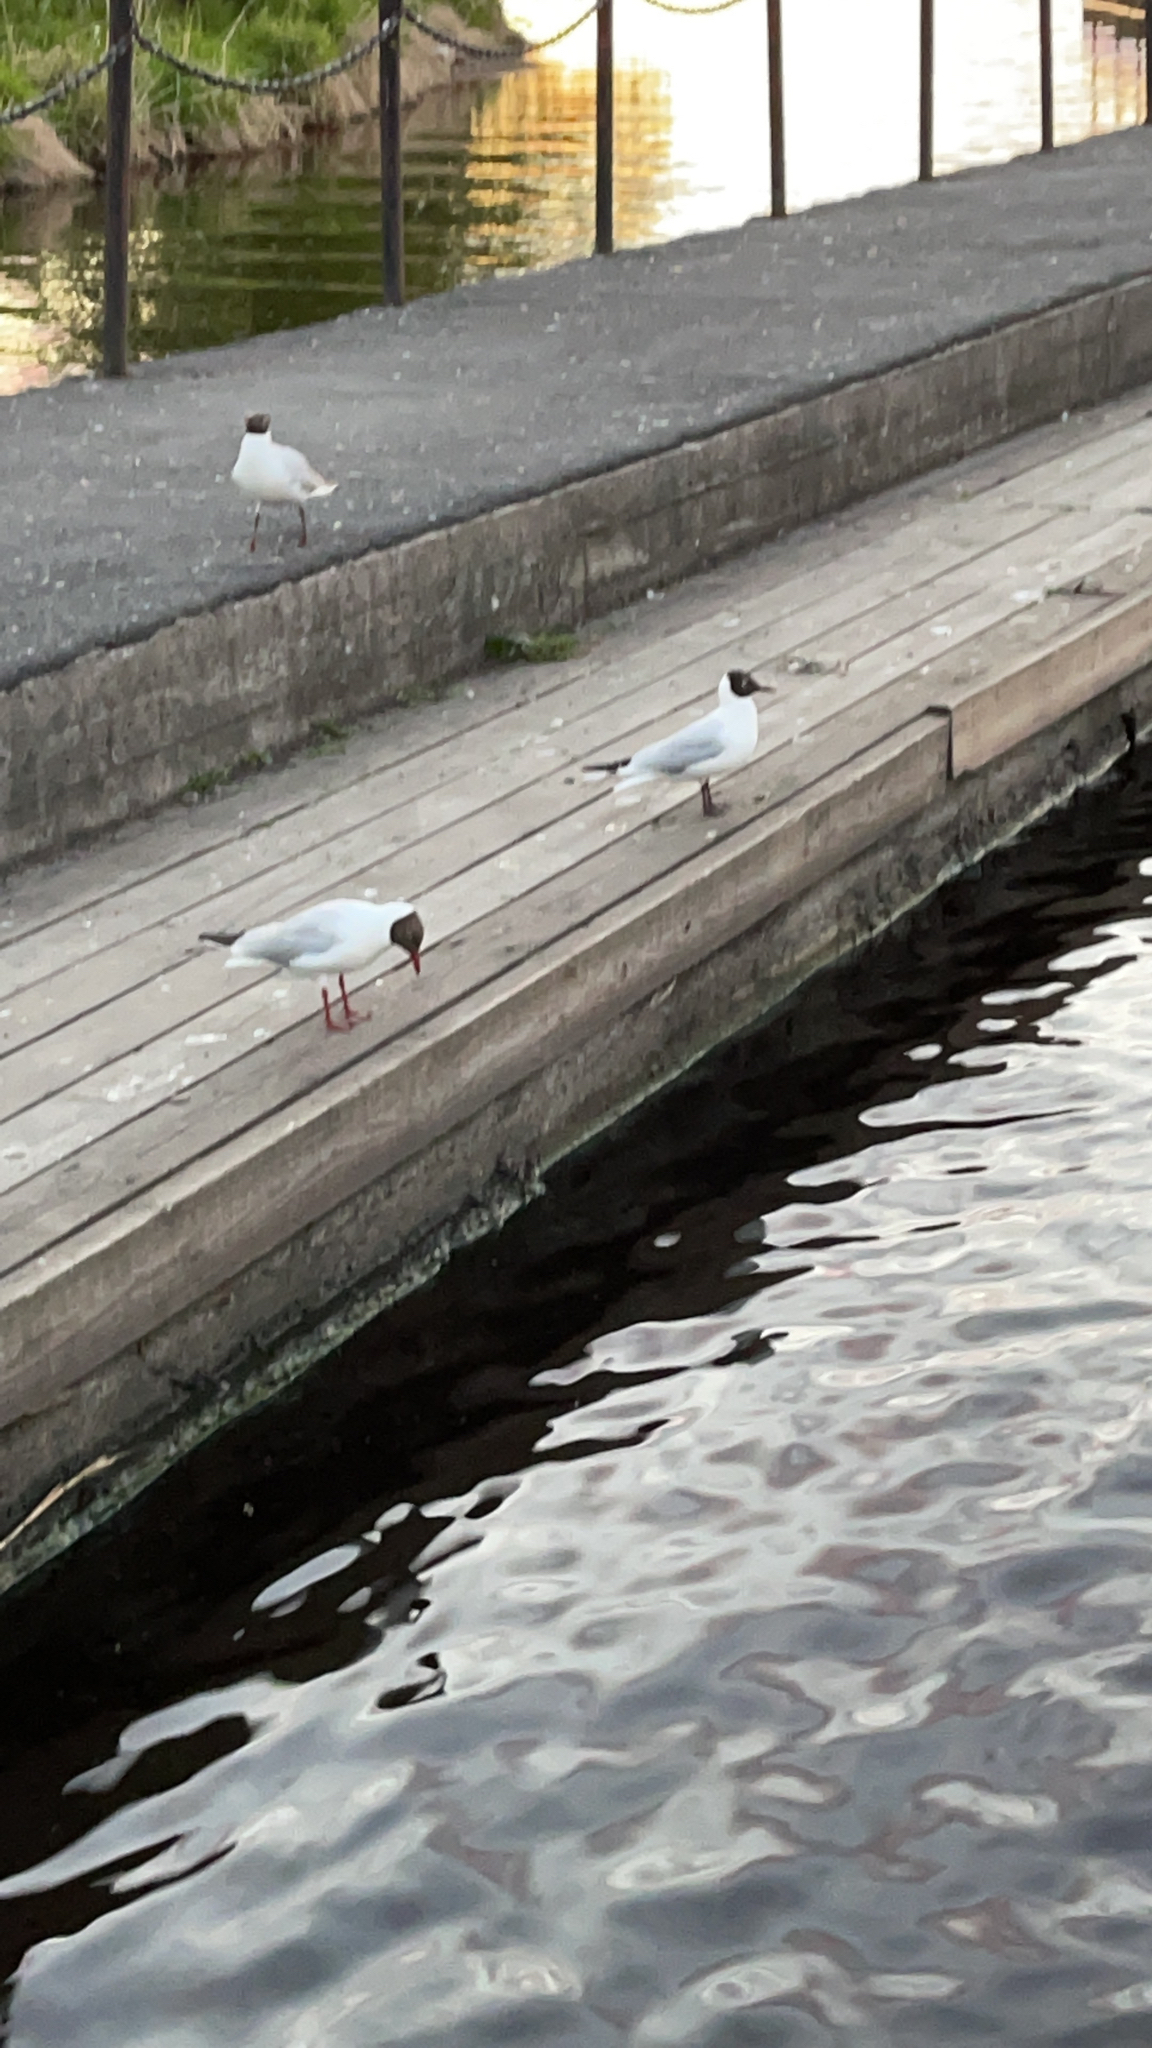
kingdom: Animalia
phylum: Chordata
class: Aves
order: Charadriiformes
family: Laridae
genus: Chroicocephalus
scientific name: Chroicocephalus ridibundus
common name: Black-headed gull
